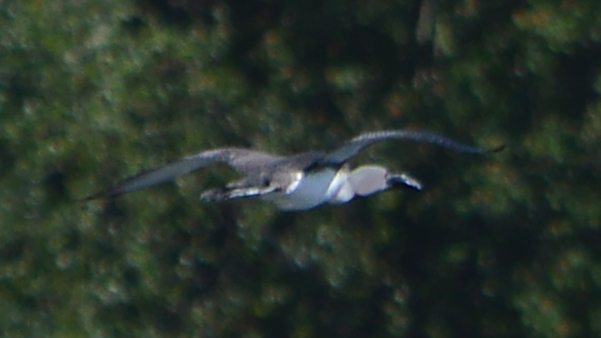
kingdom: Animalia
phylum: Chordata
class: Aves
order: Gaviiformes
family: Gaviidae
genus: Gavia
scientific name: Gavia stellata
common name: Red-throated loon
